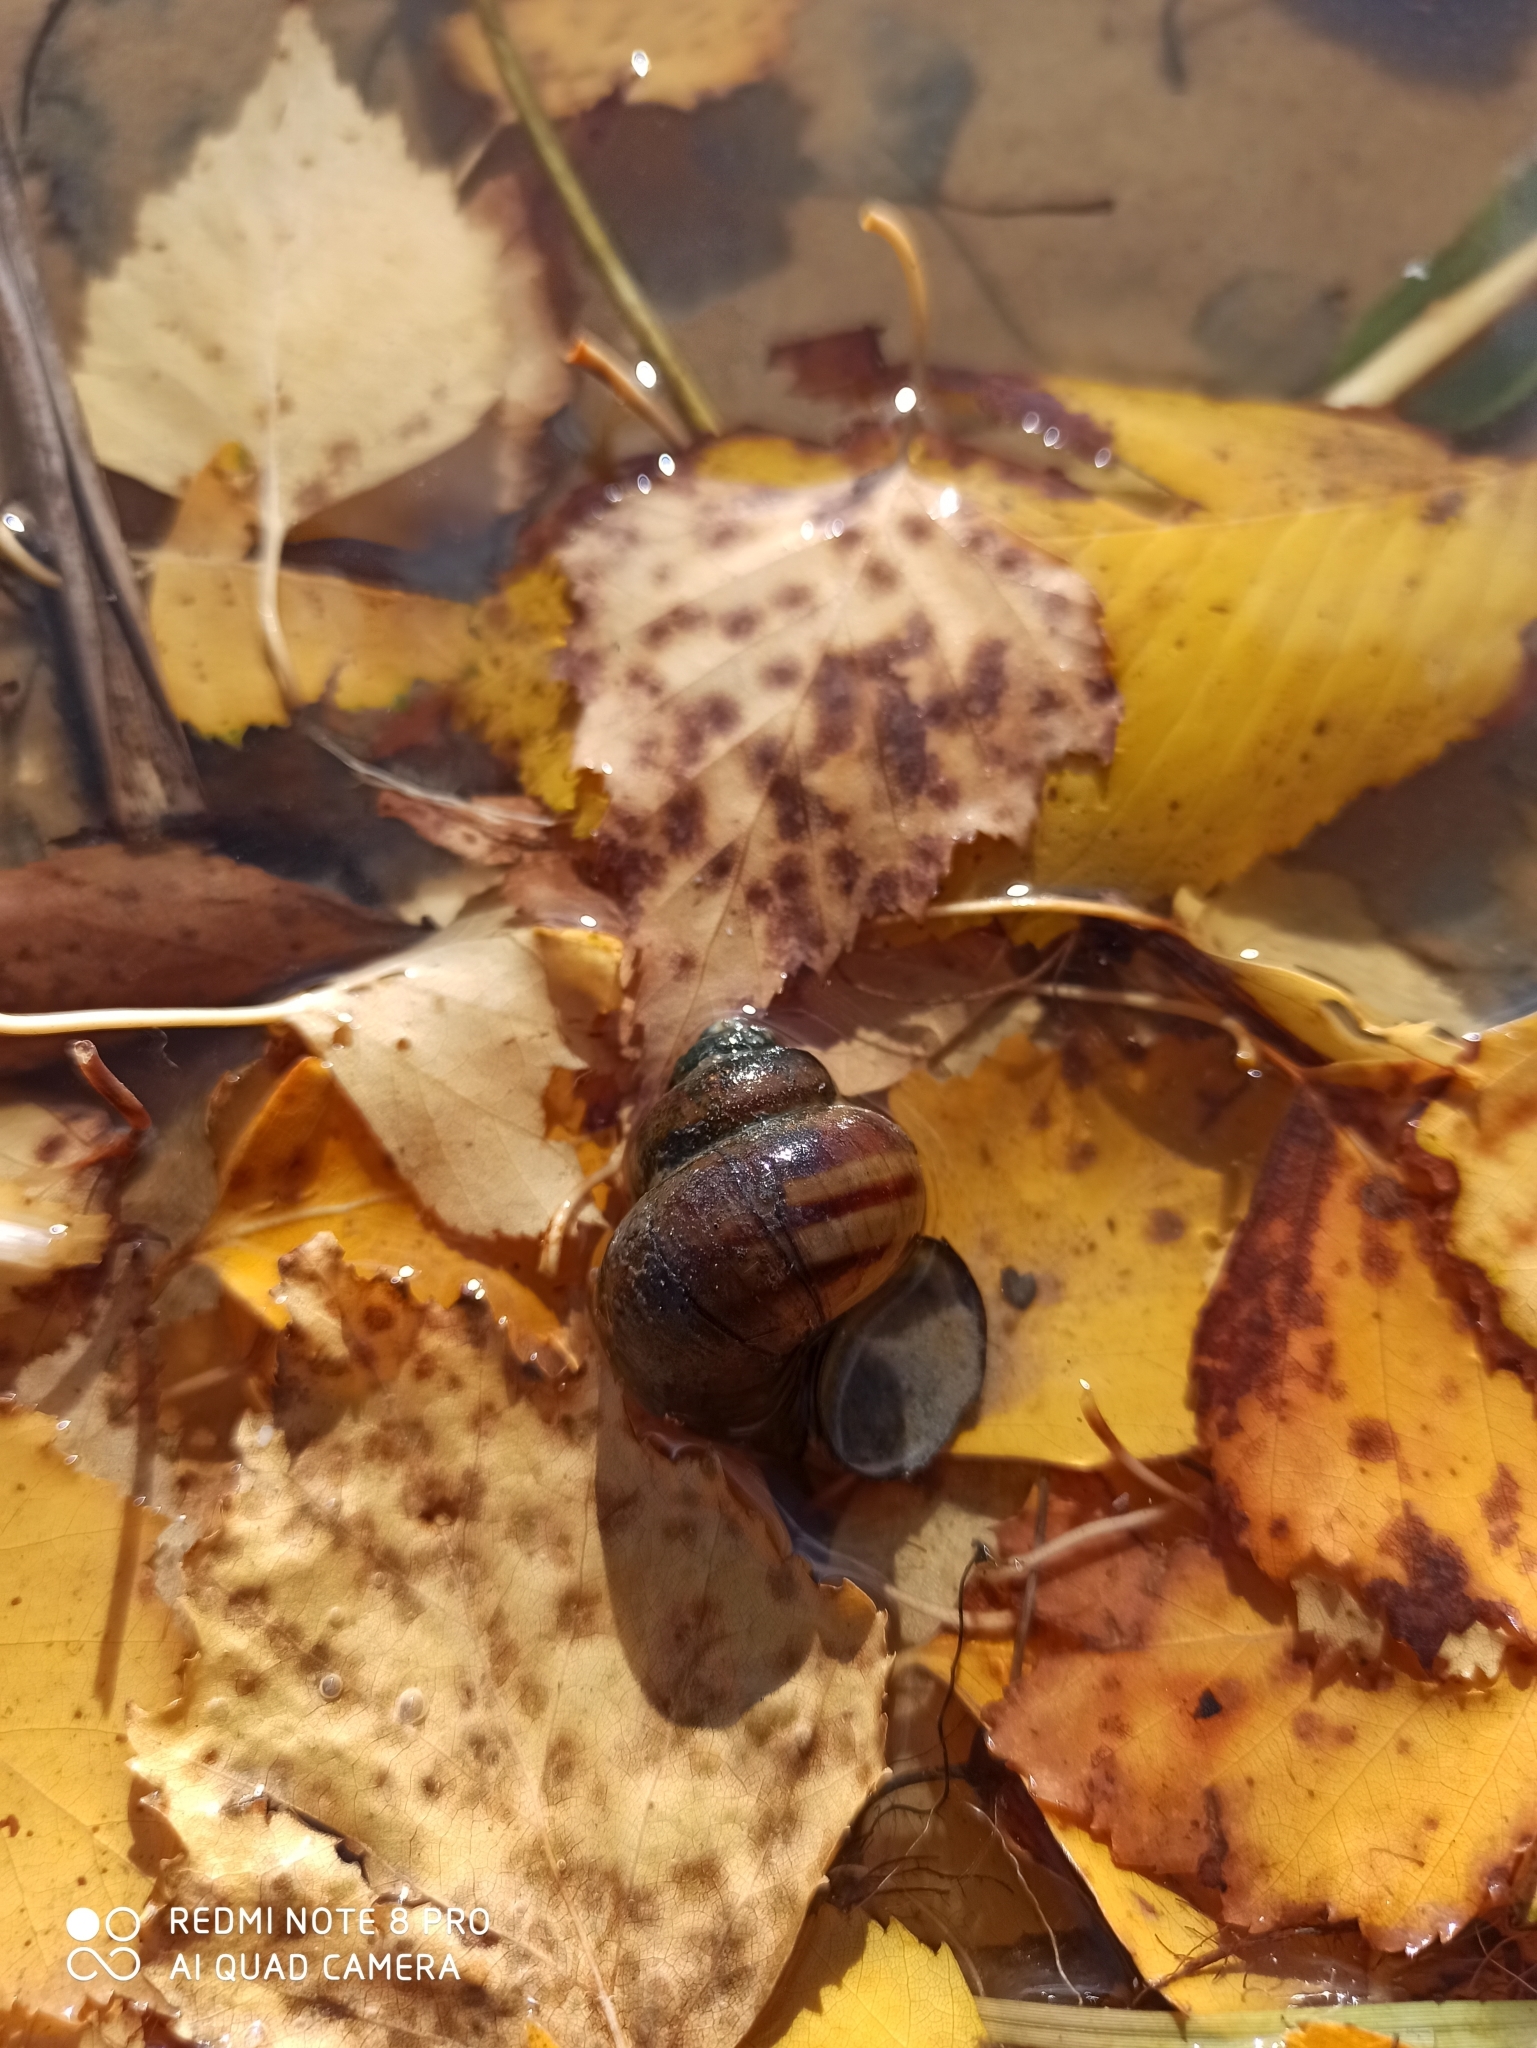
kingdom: Animalia
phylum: Mollusca
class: Gastropoda
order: Architaenioglossa
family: Viviparidae
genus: Viviparus
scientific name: Viviparus contectus
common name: Lister's river snail
